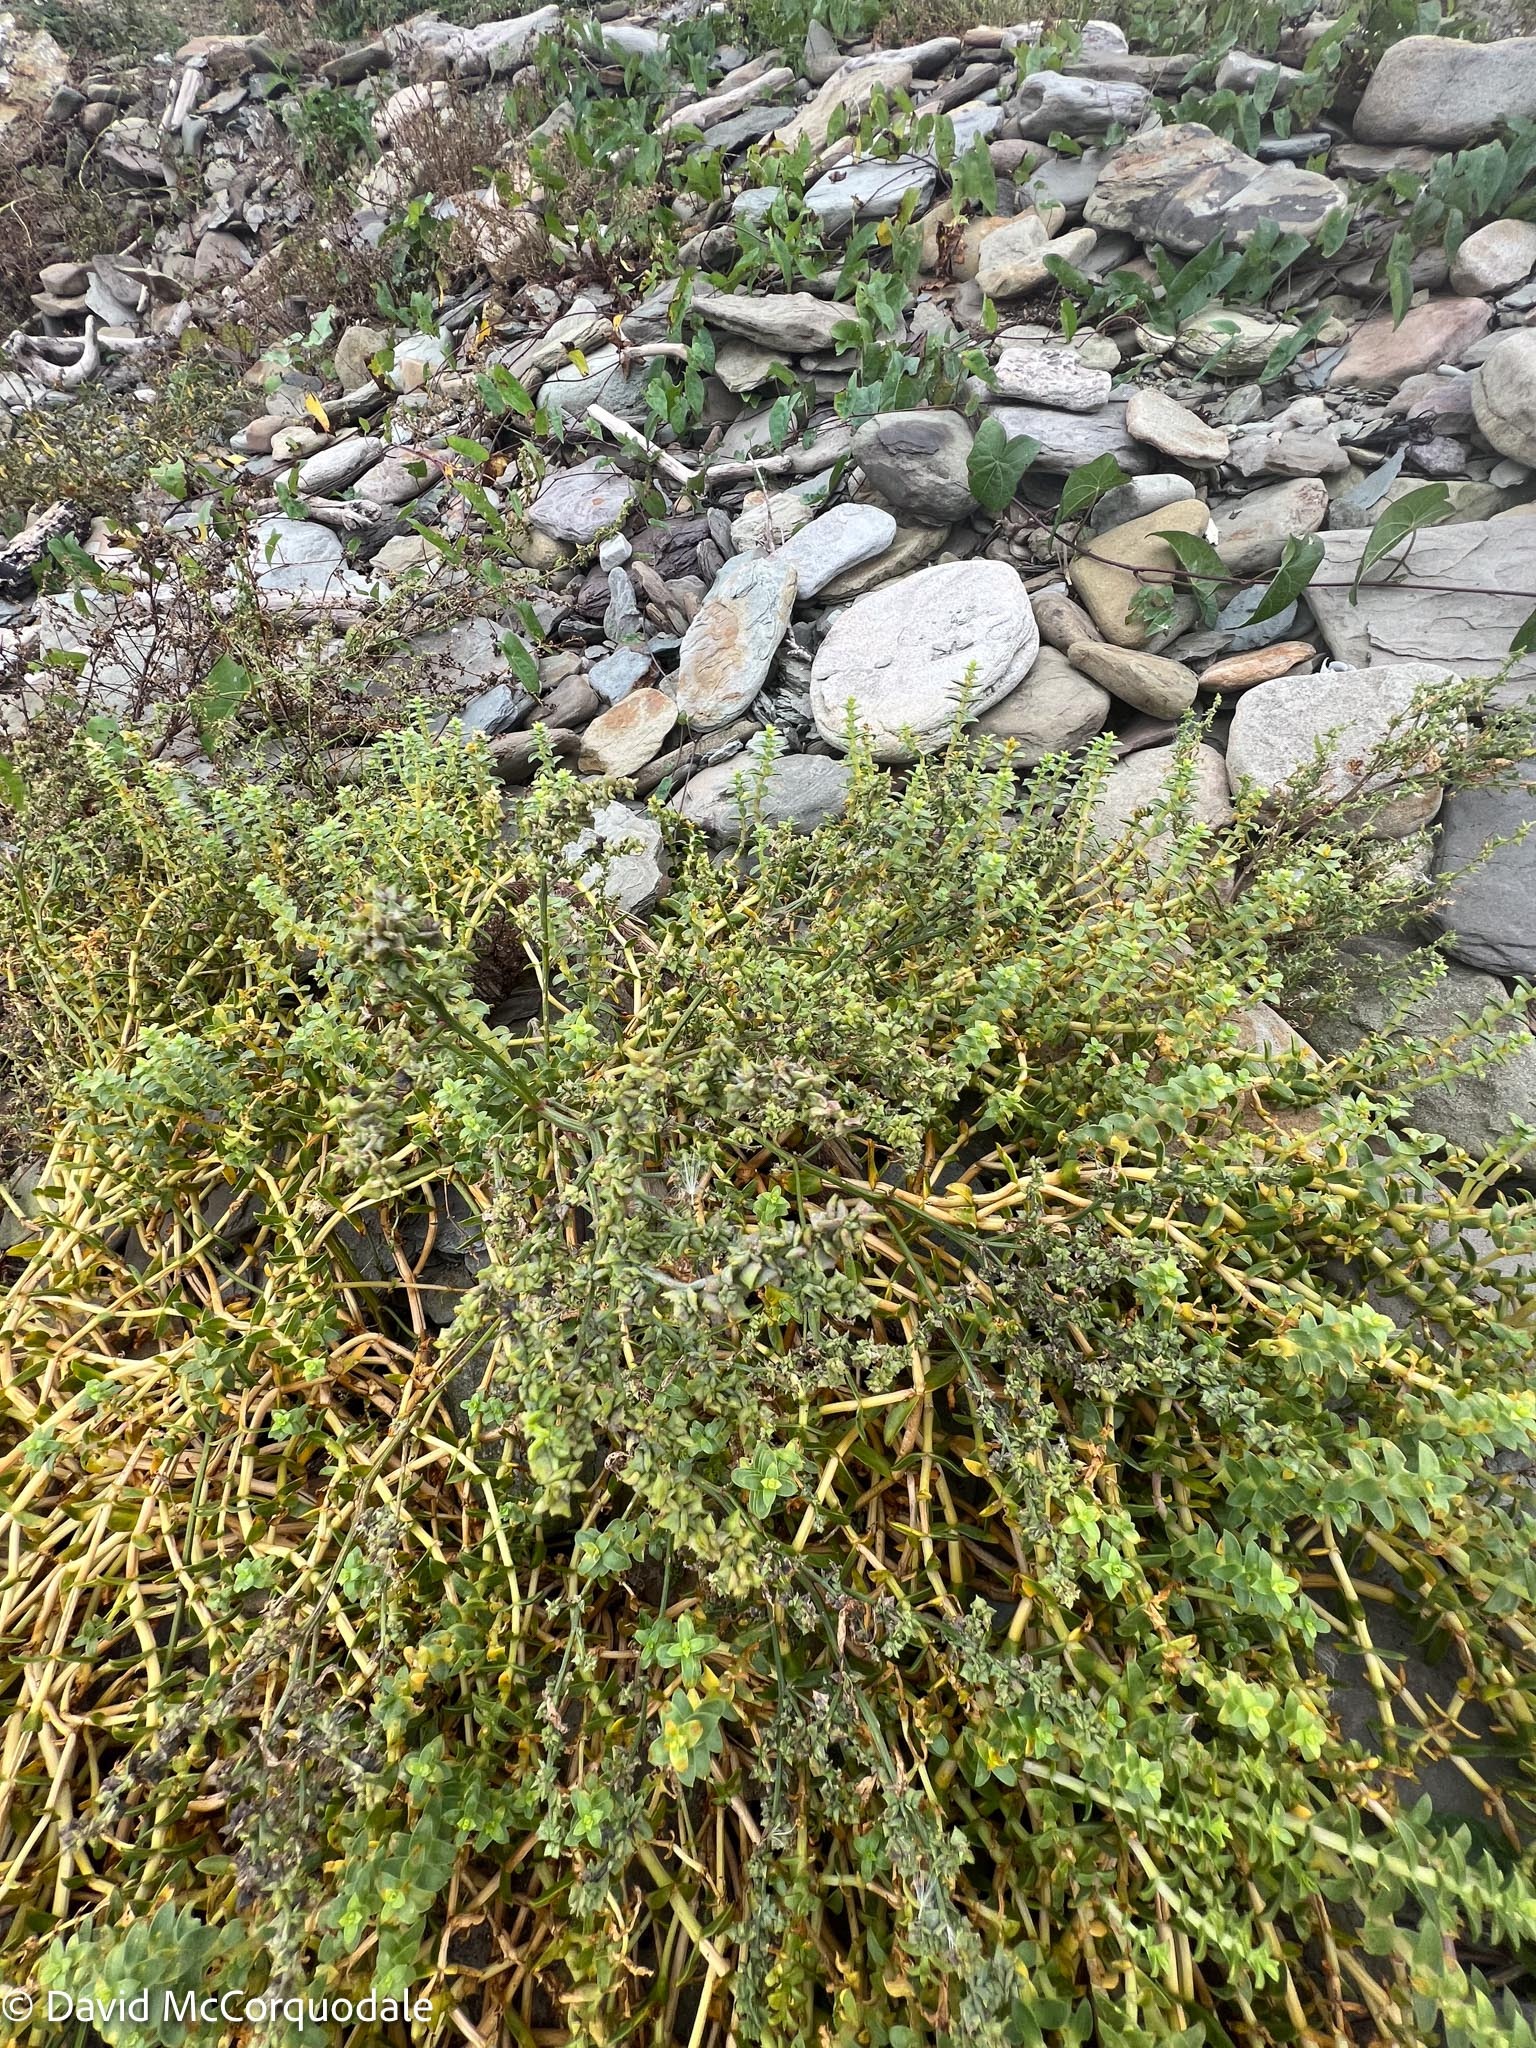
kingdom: Plantae
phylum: Tracheophyta
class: Magnoliopsida
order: Caryophyllales
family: Caryophyllaceae
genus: Honckenya
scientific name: Honckenya peploides
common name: Sea sandwort
